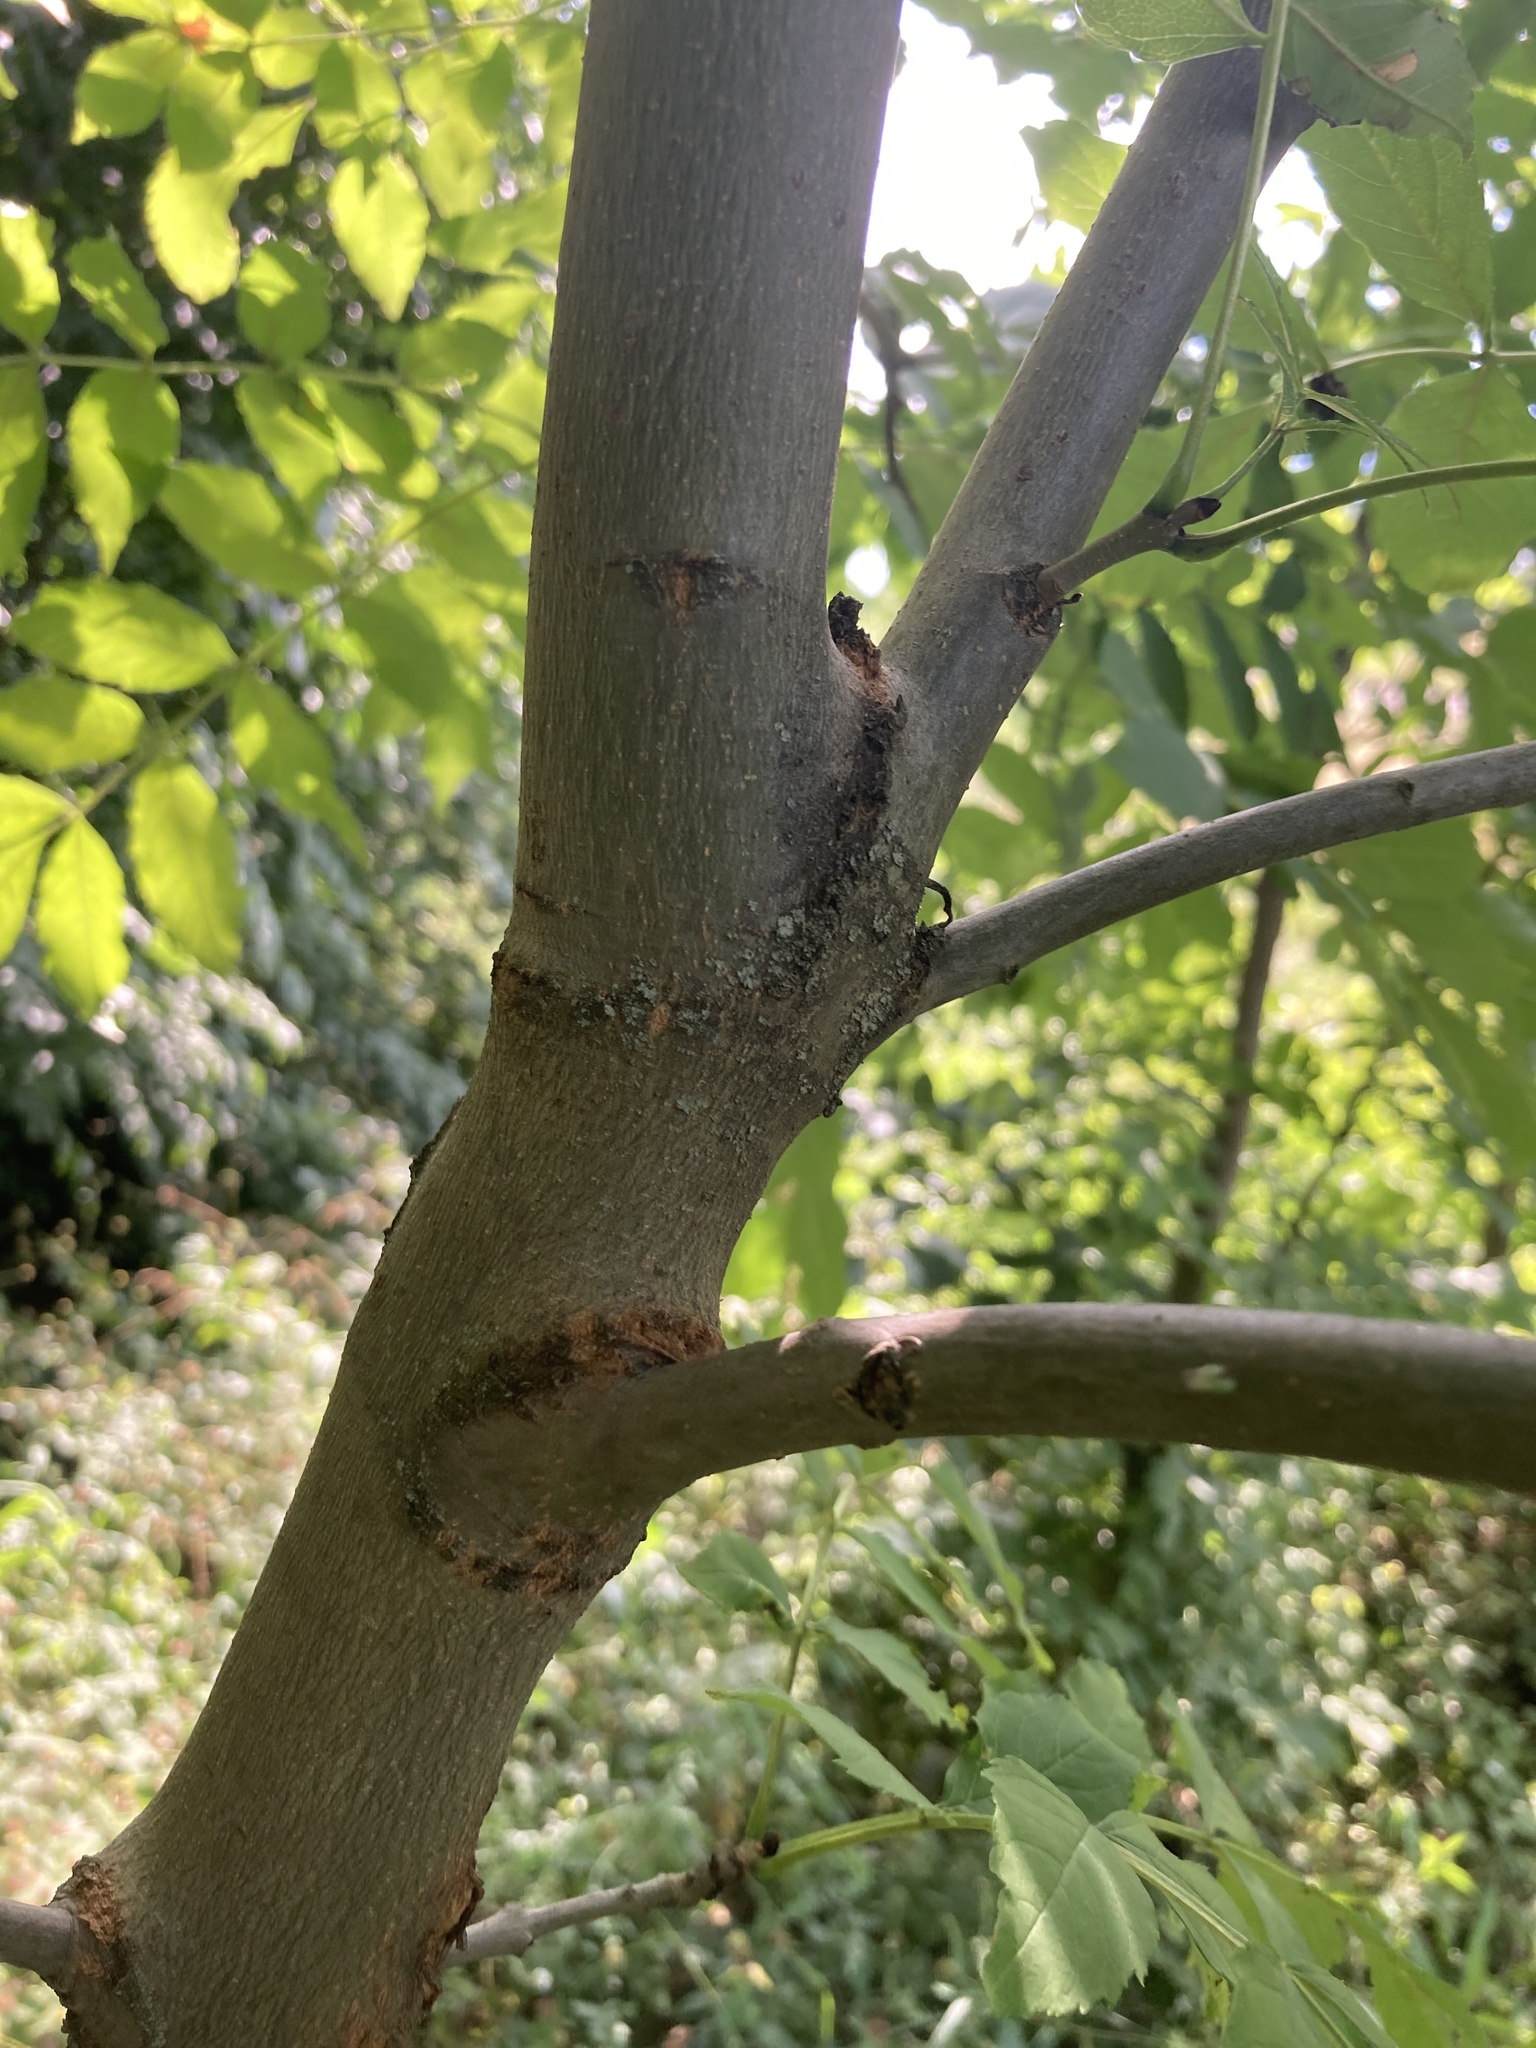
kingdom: Plantae
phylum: Tracheophyta
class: Magnoliopsida
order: Lamiales
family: Oleaceae
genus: Fraxinus
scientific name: Fraxinus excelsior
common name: European ash
